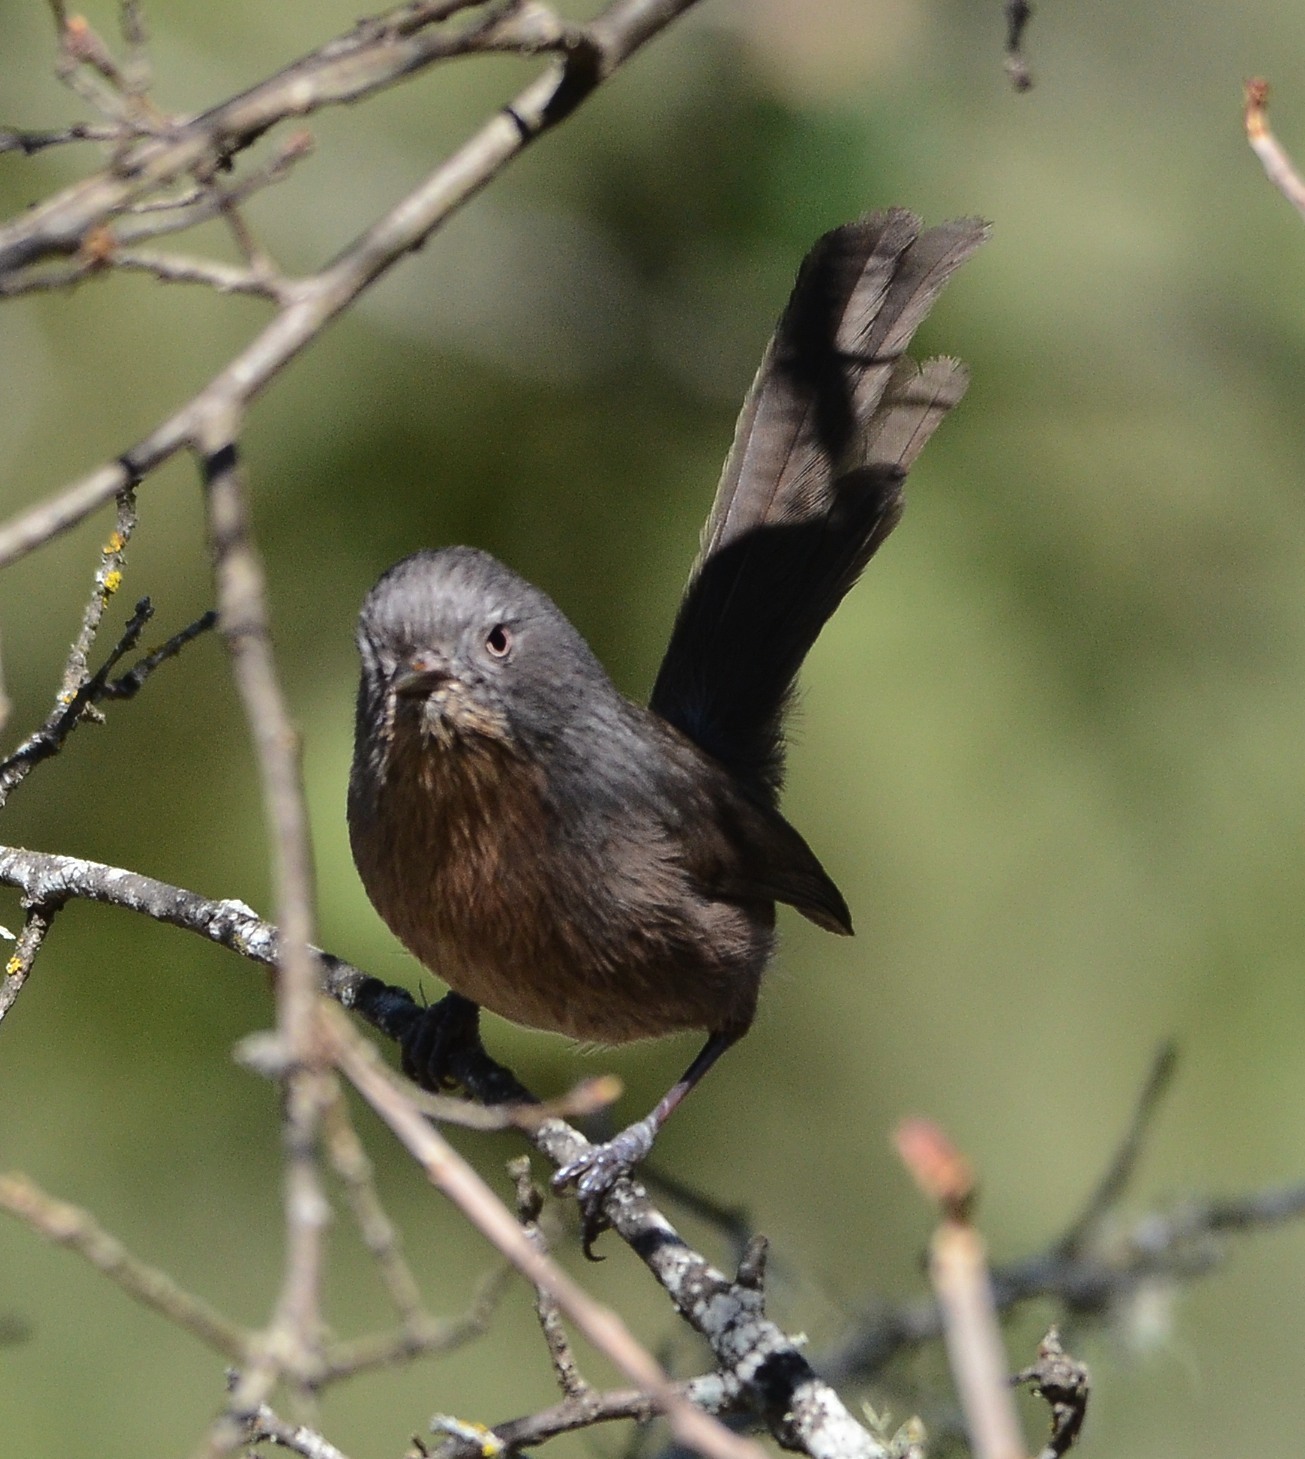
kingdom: Animalia
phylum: Chordata
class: Aves
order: Passeriformes
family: Sylviidae
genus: Chamaea
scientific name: Chamaea fasciata
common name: Wrentit
